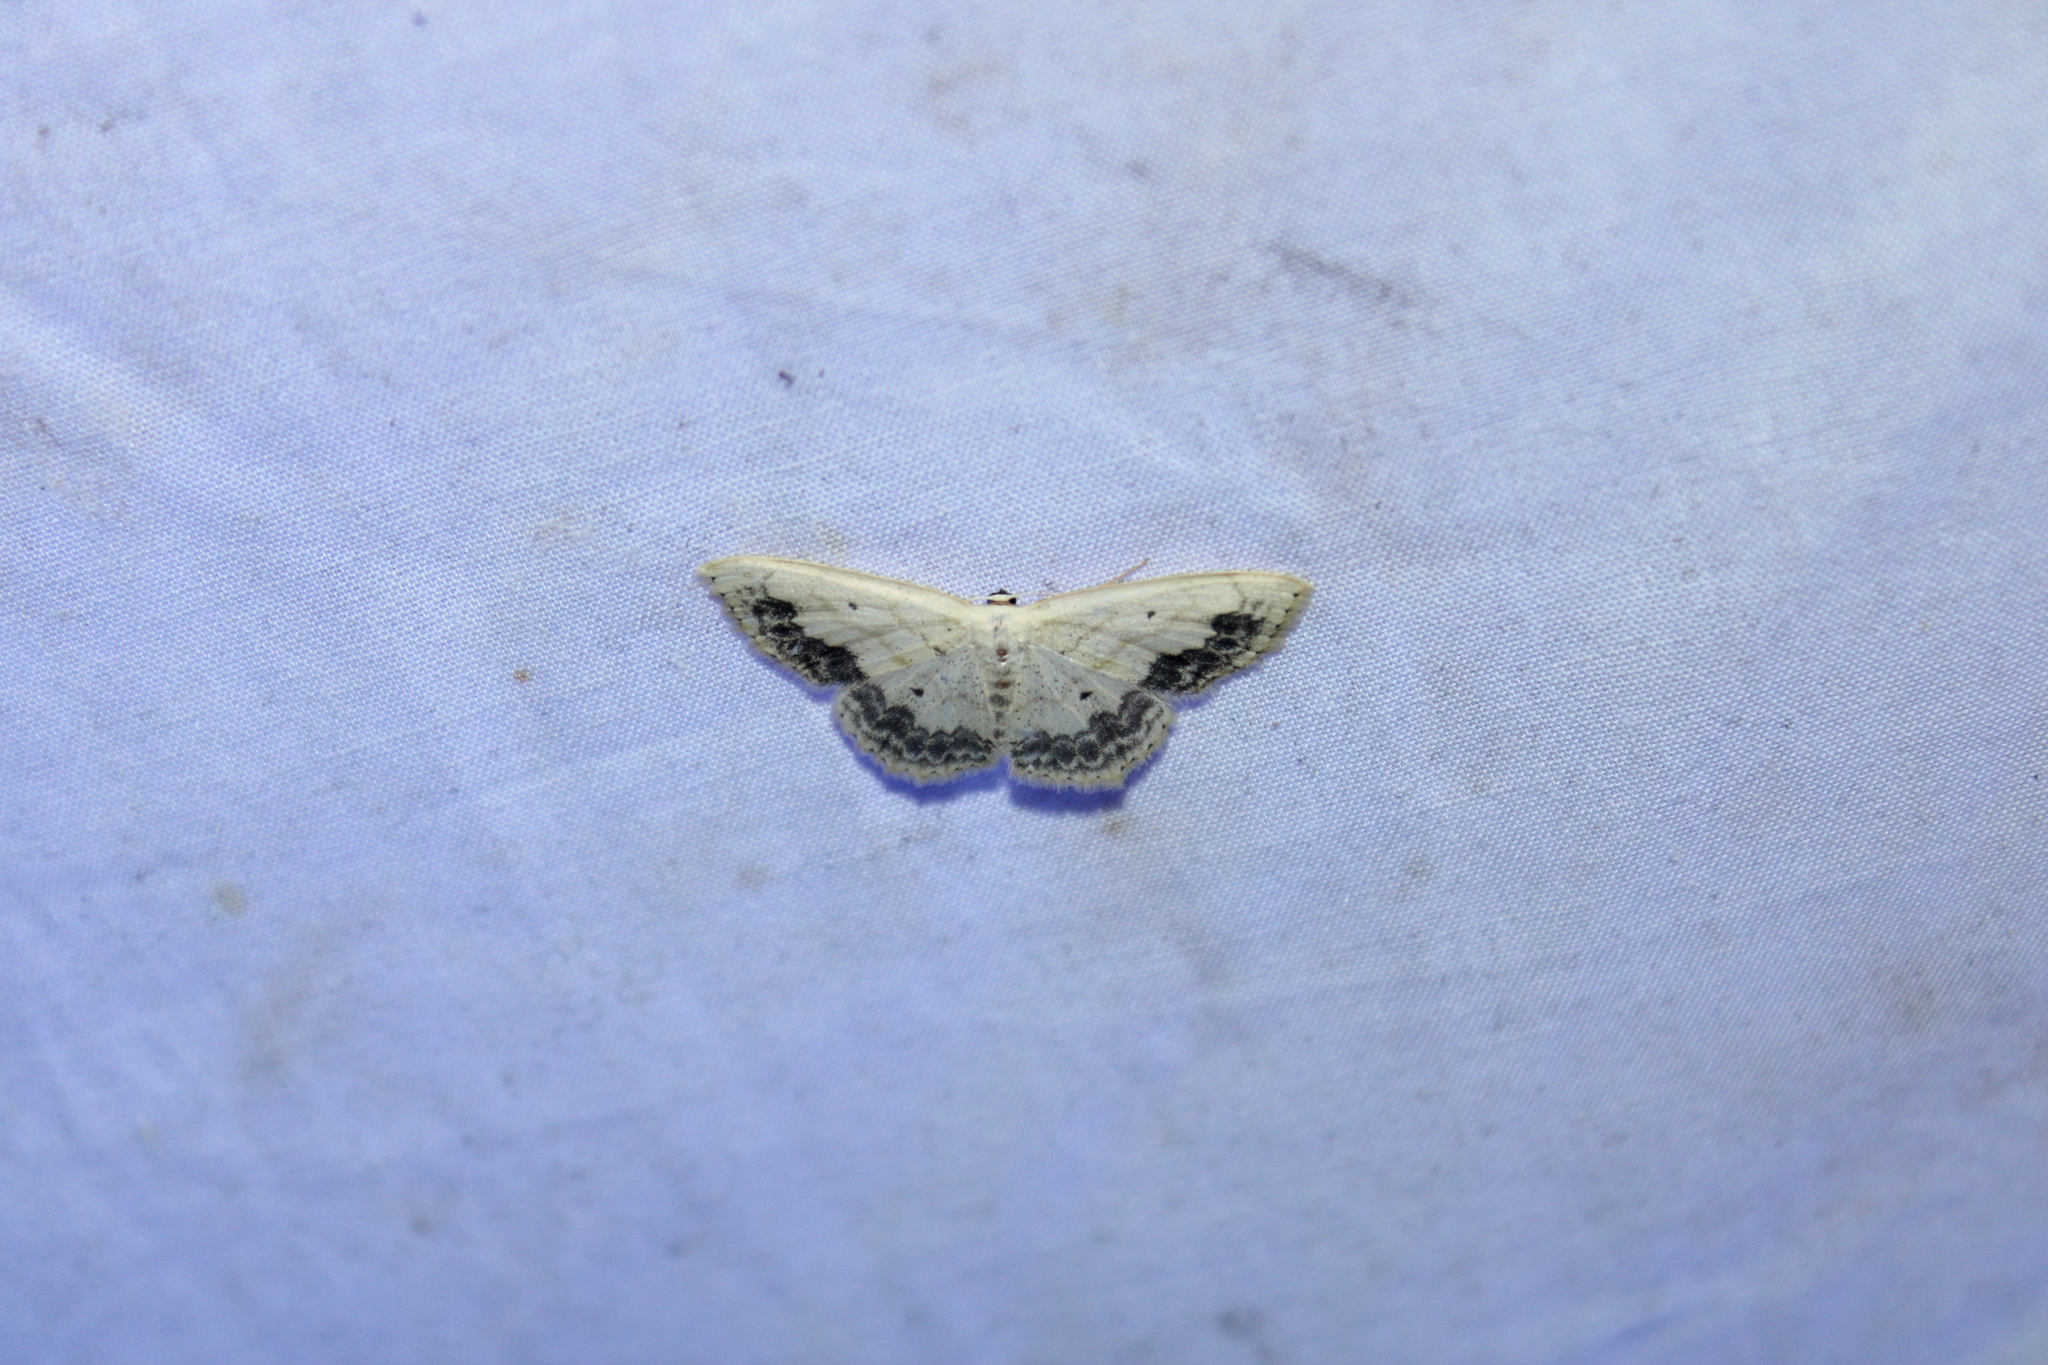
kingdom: Animalia
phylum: Arthropoda
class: Insecta
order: Lepidoptera
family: Geometridae
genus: Scopula
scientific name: Scopula limboundata
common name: Large lace border
